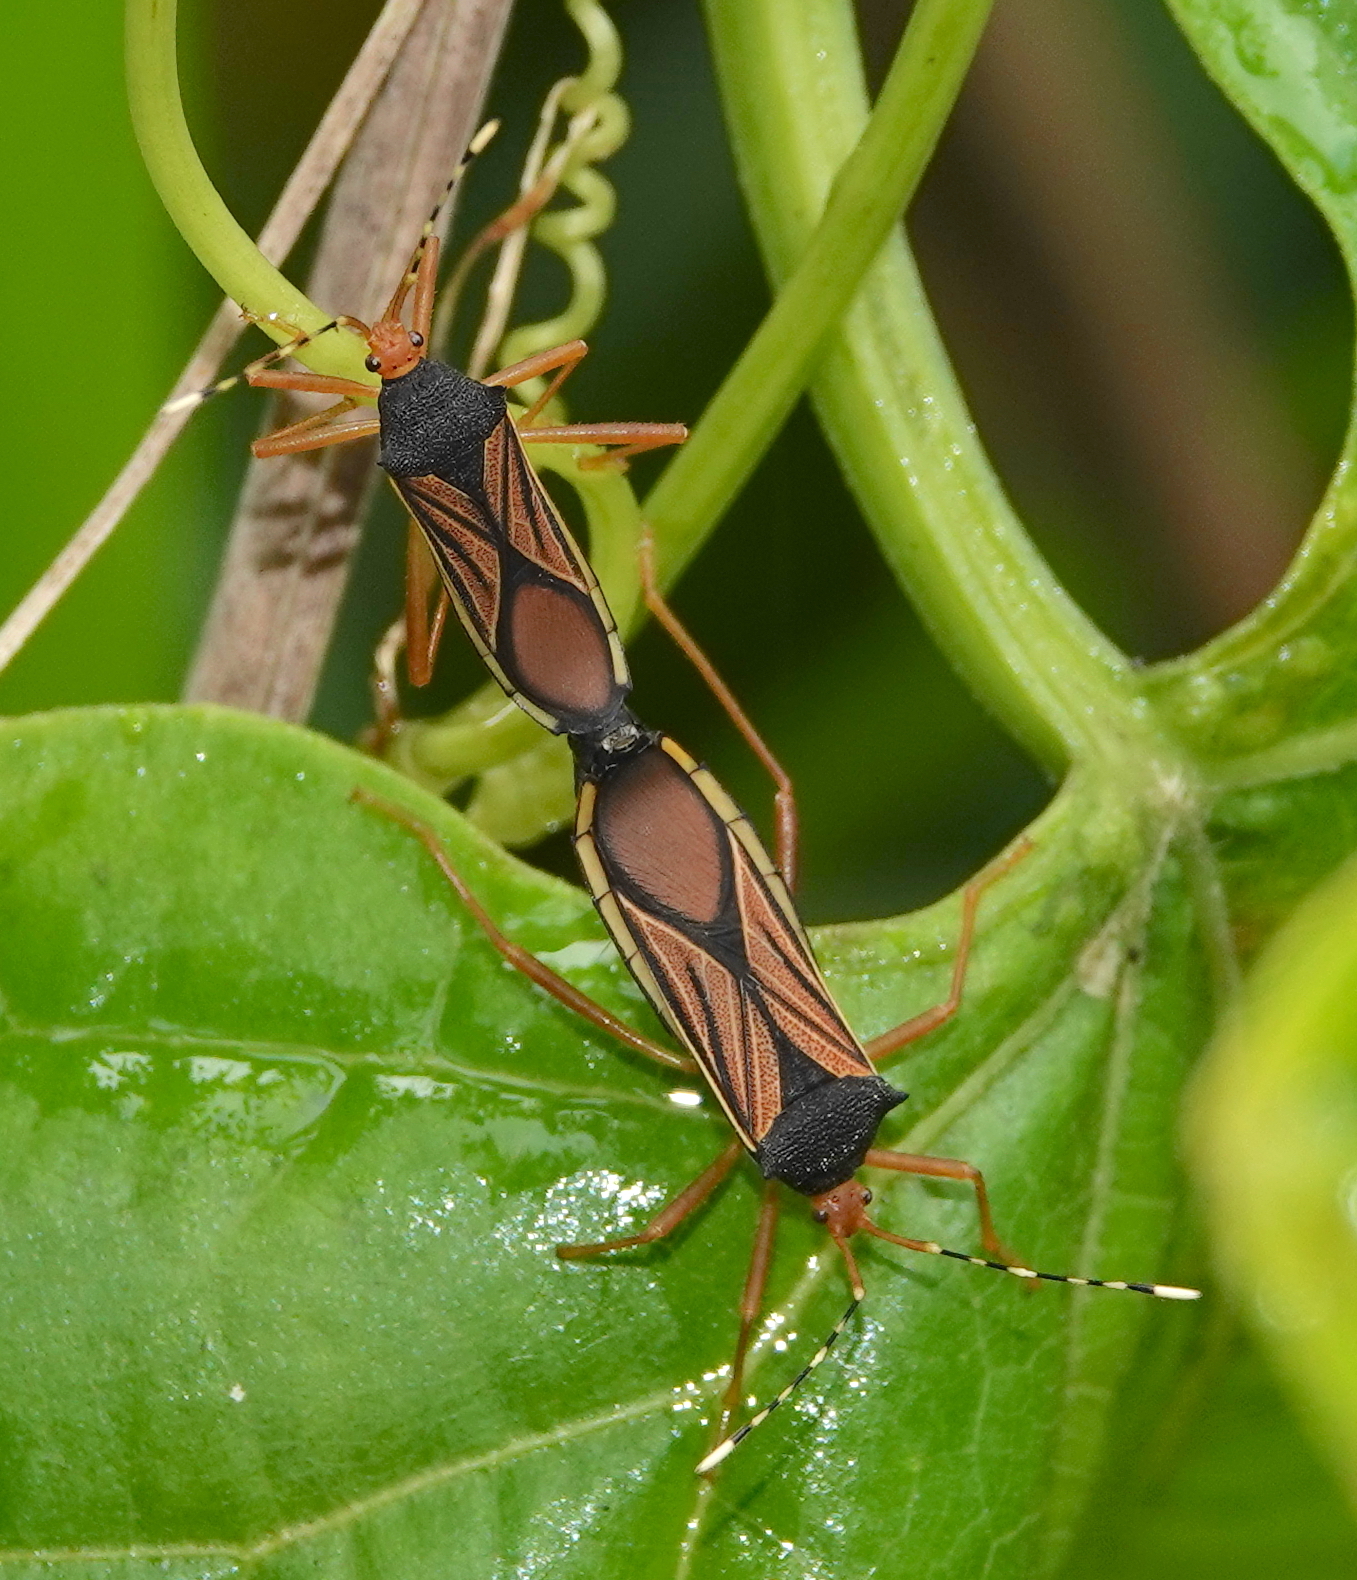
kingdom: Animalia
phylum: Arthropoda
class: Insecta
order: Hemiptera
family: Coreidae
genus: Anasa
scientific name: Anasa nigricollis
